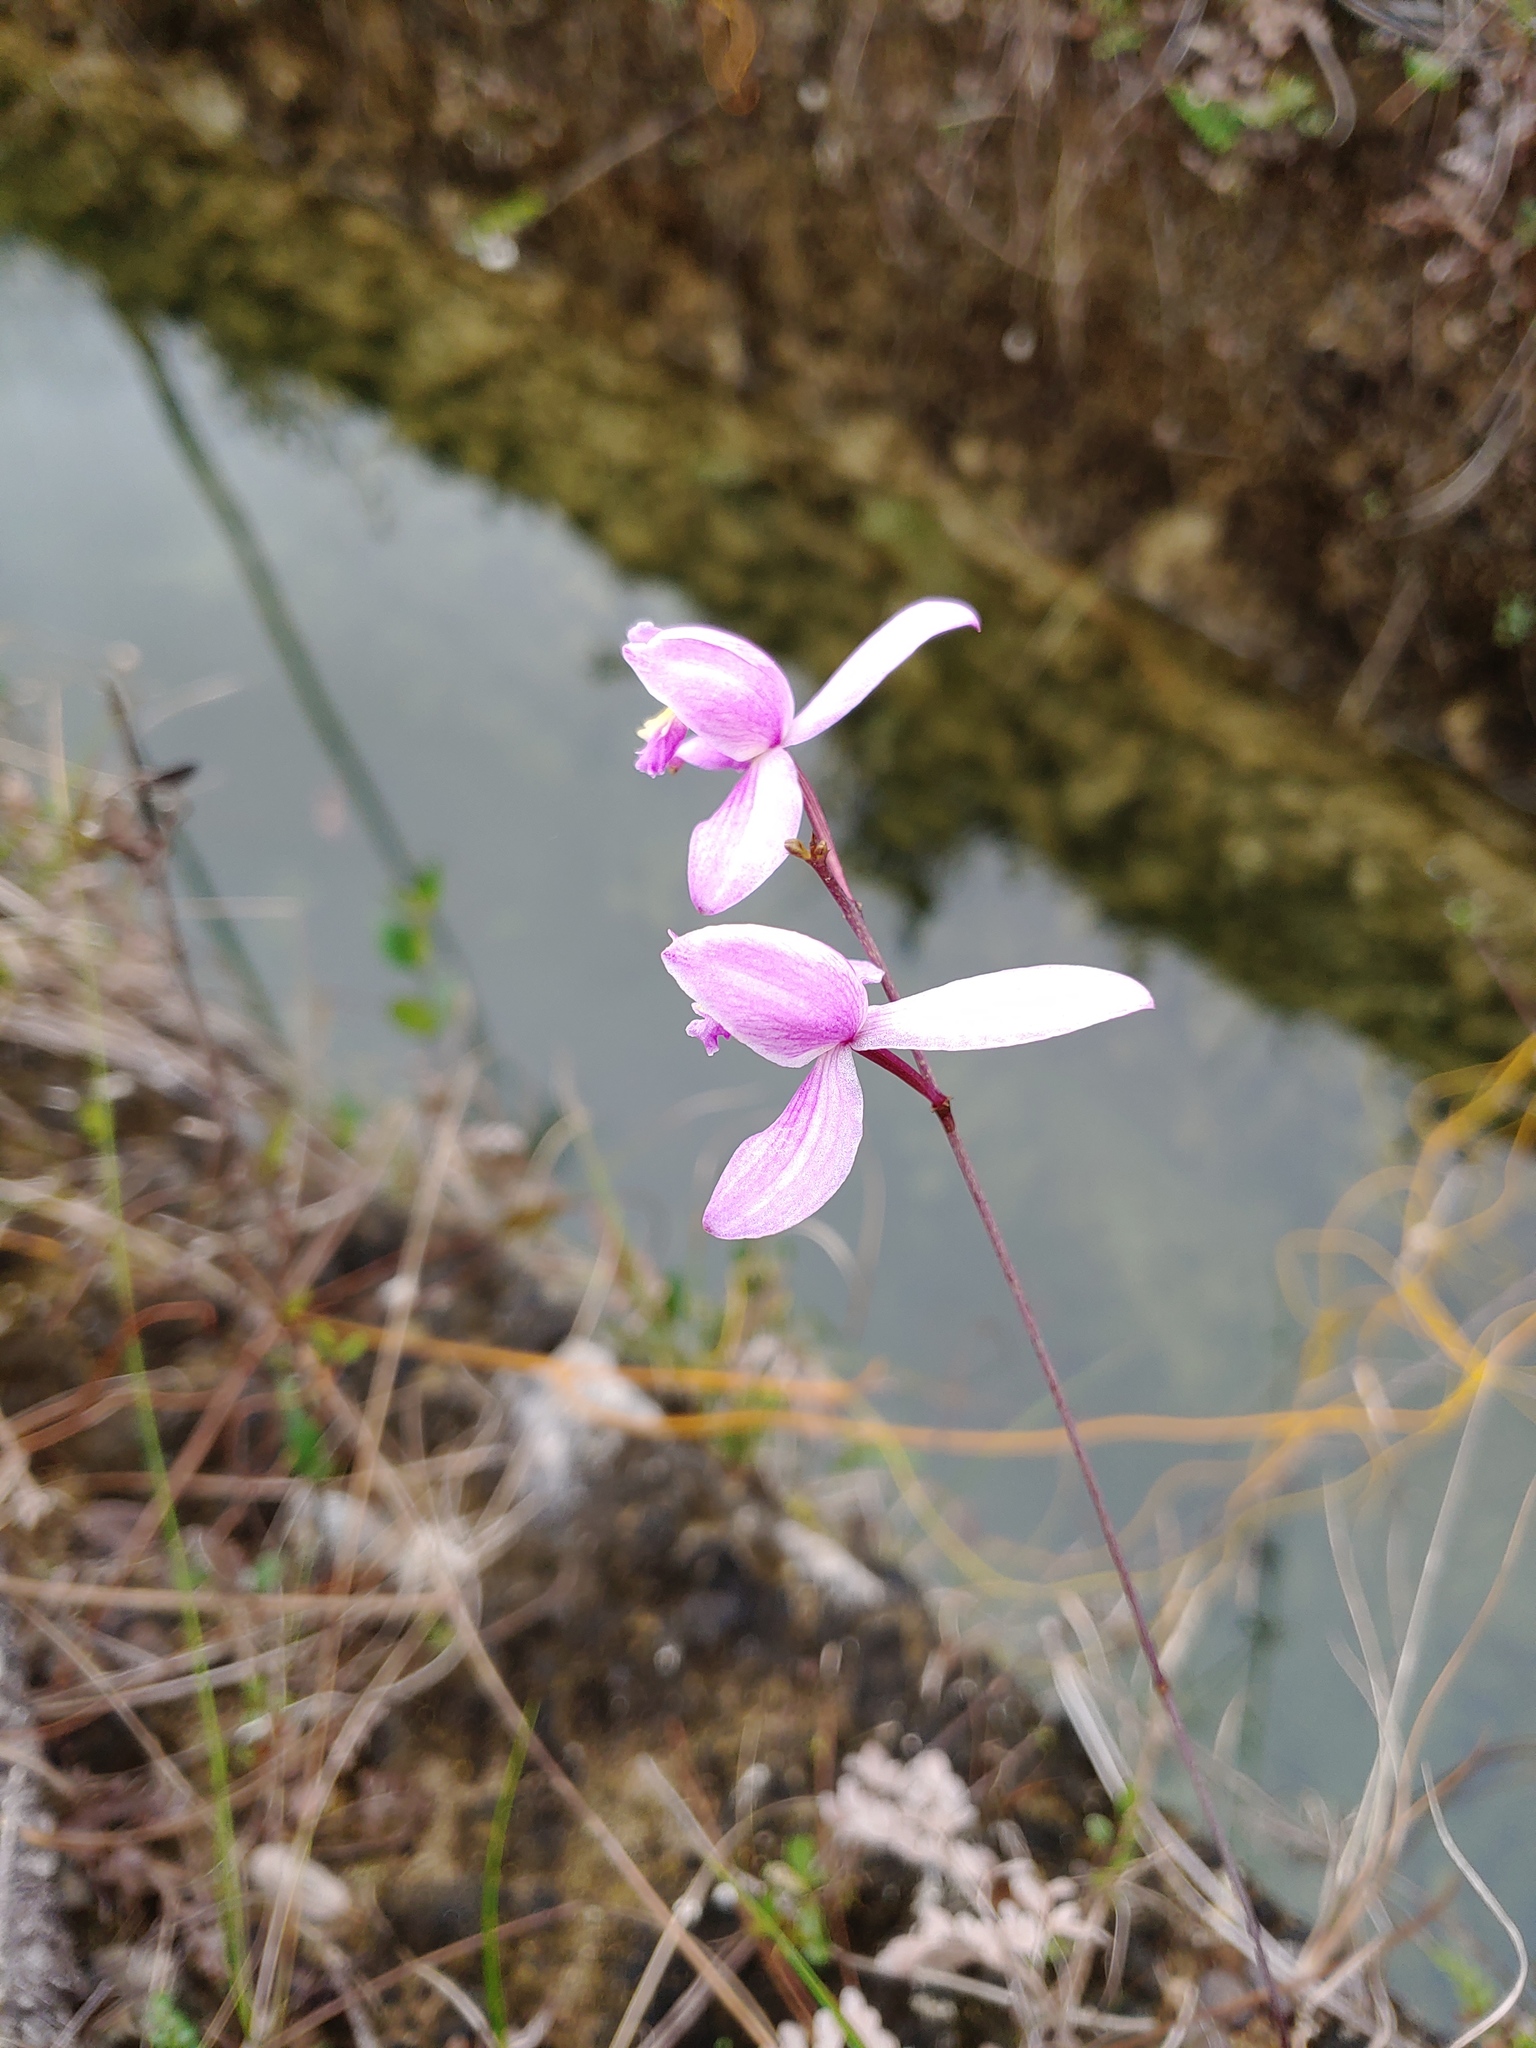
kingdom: Plantae
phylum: Tracheophyta
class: Liliopsida
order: Asparagales
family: Orchidaceae
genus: Bletia
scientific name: Bletia purpurea
